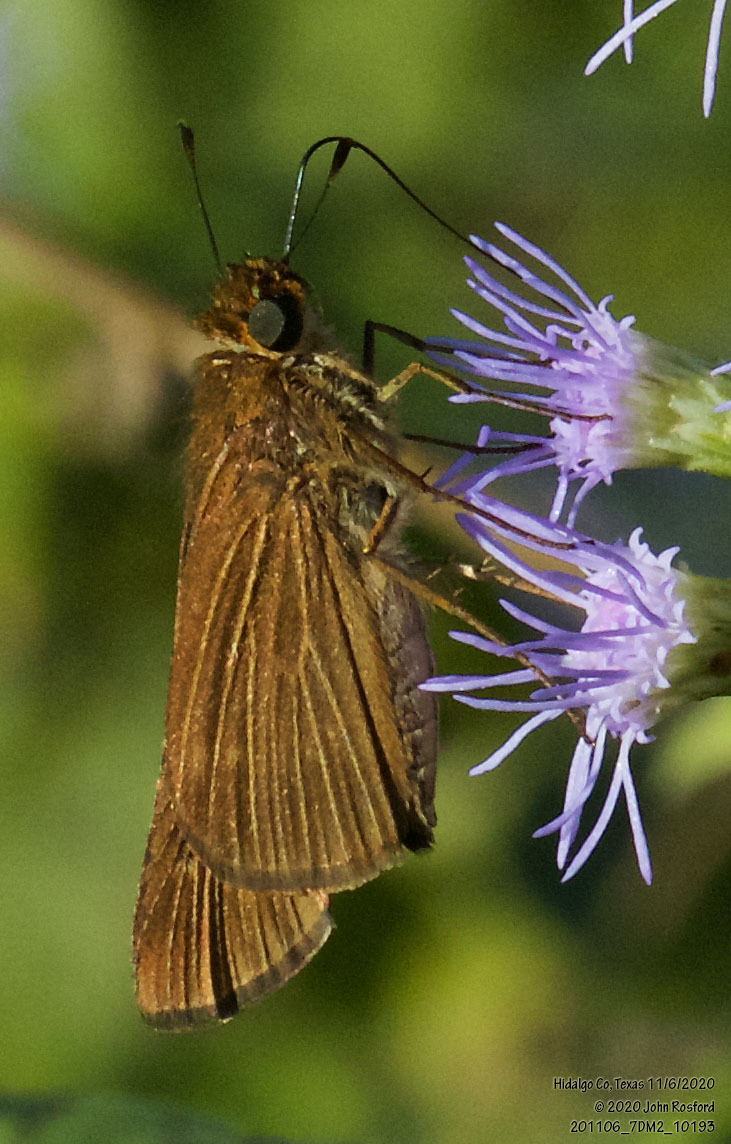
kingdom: Animalia
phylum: Arthropoda
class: Insecta
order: Lepidoptera
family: Hesperiidae
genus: Panoquina
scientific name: Panoquina ocola
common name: Ocola skipper
